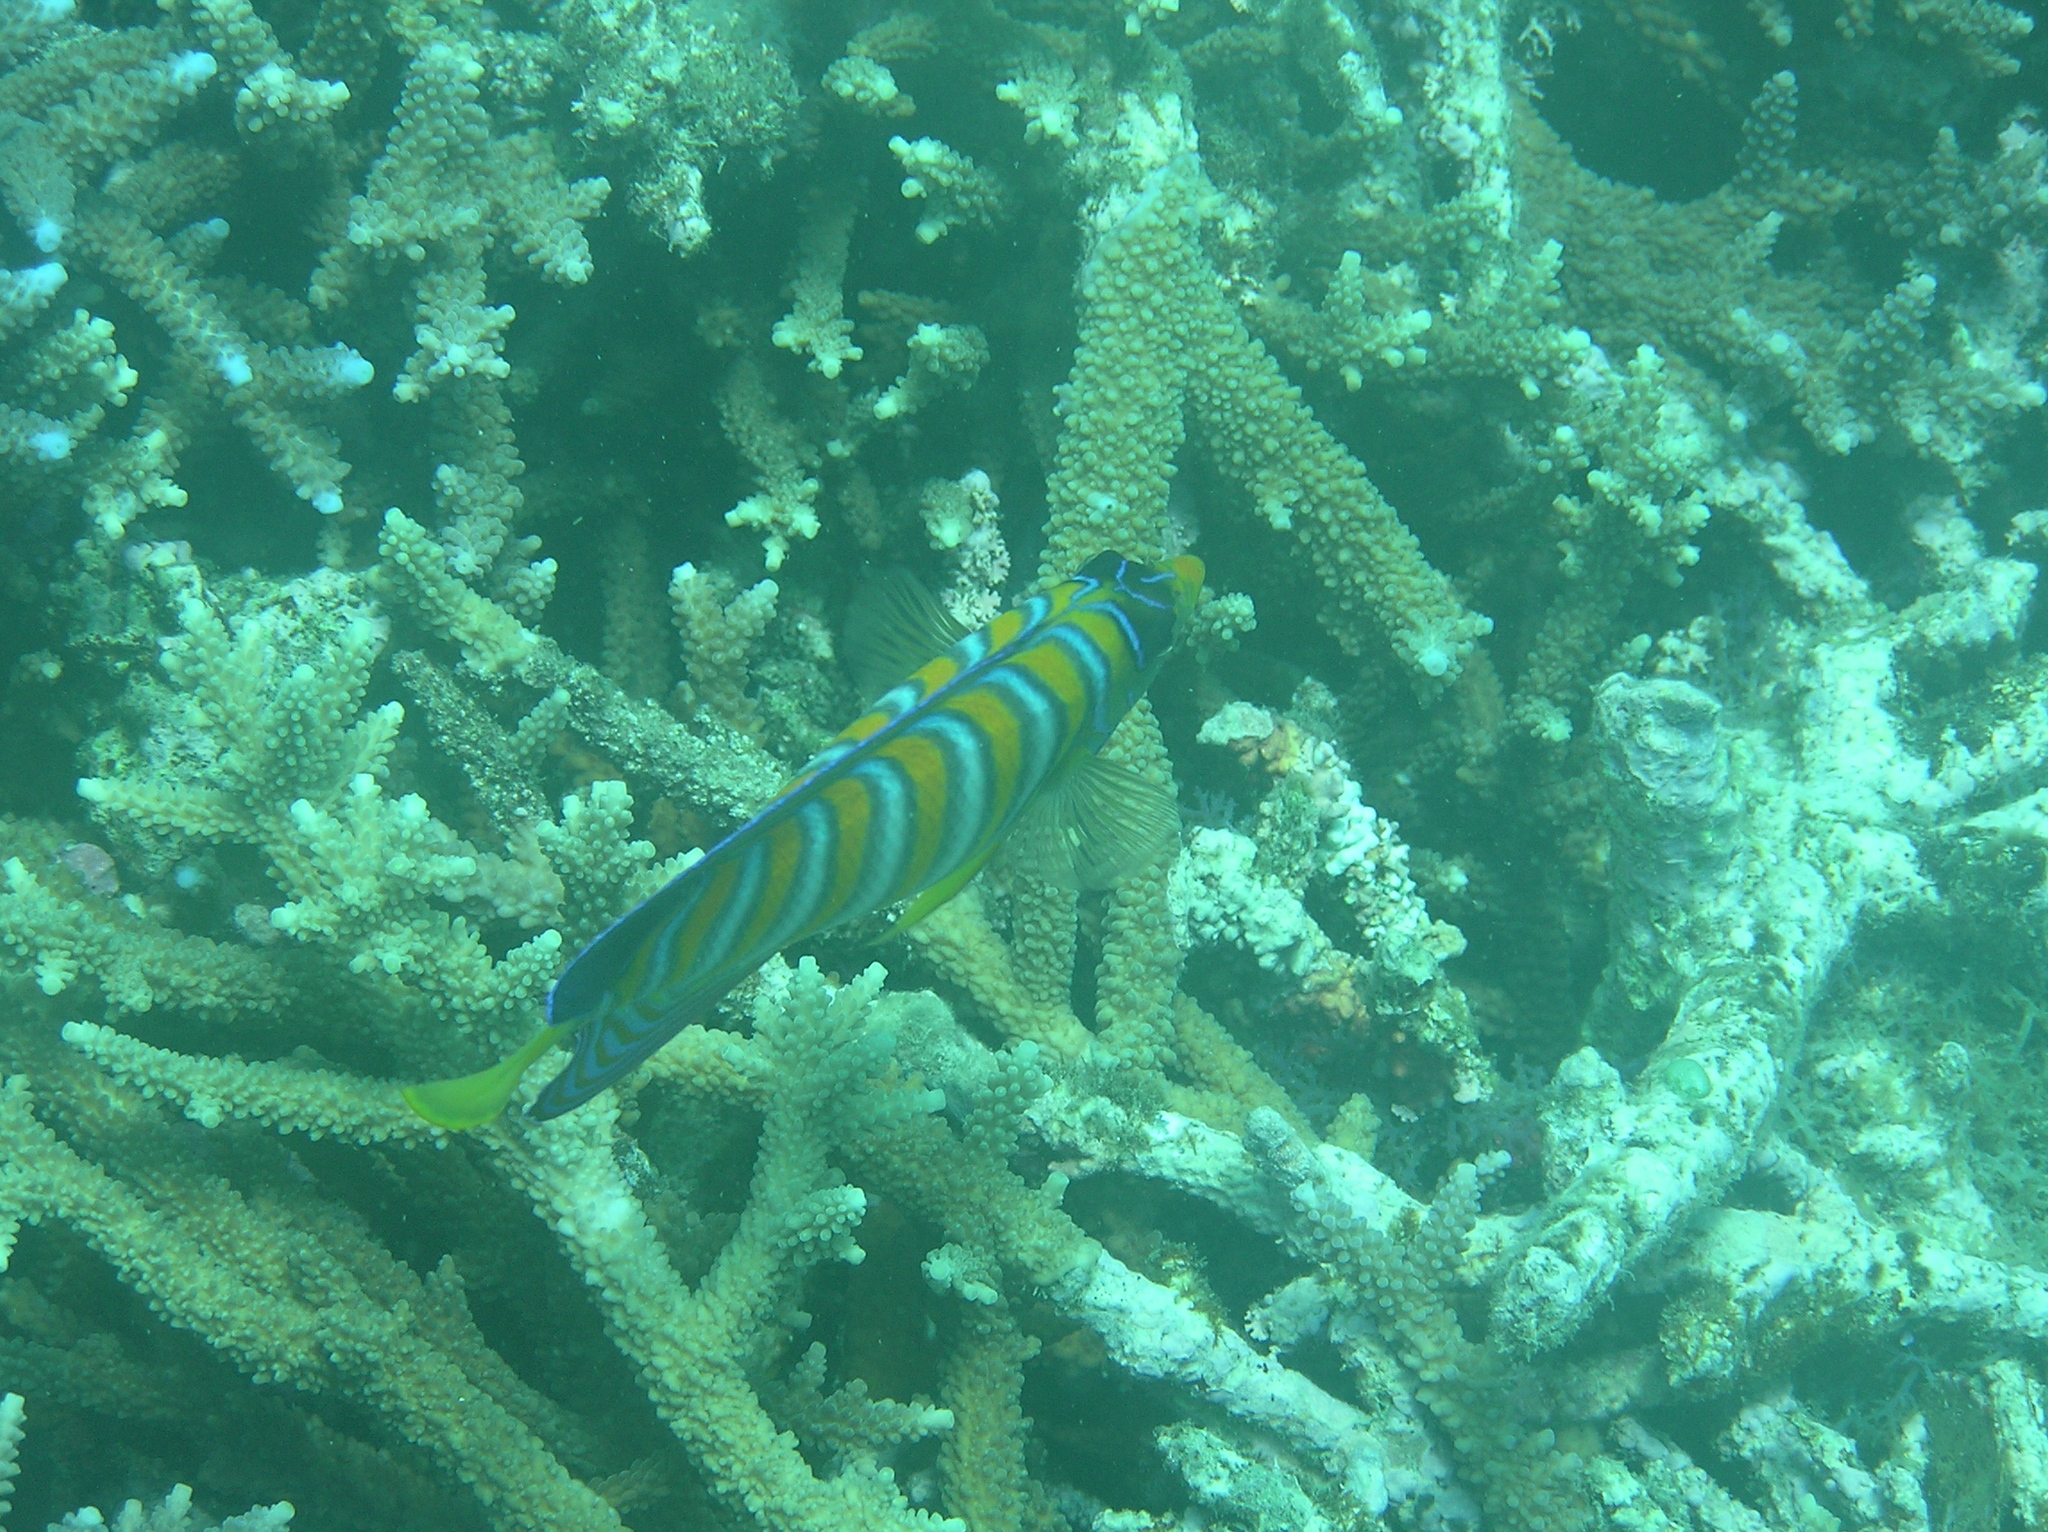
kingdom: Animalia
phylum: Chordata
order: Perciformes
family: Pomacanthidae
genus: Pygoplites
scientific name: Pygoplites diacanthus
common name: Regal angelfish
